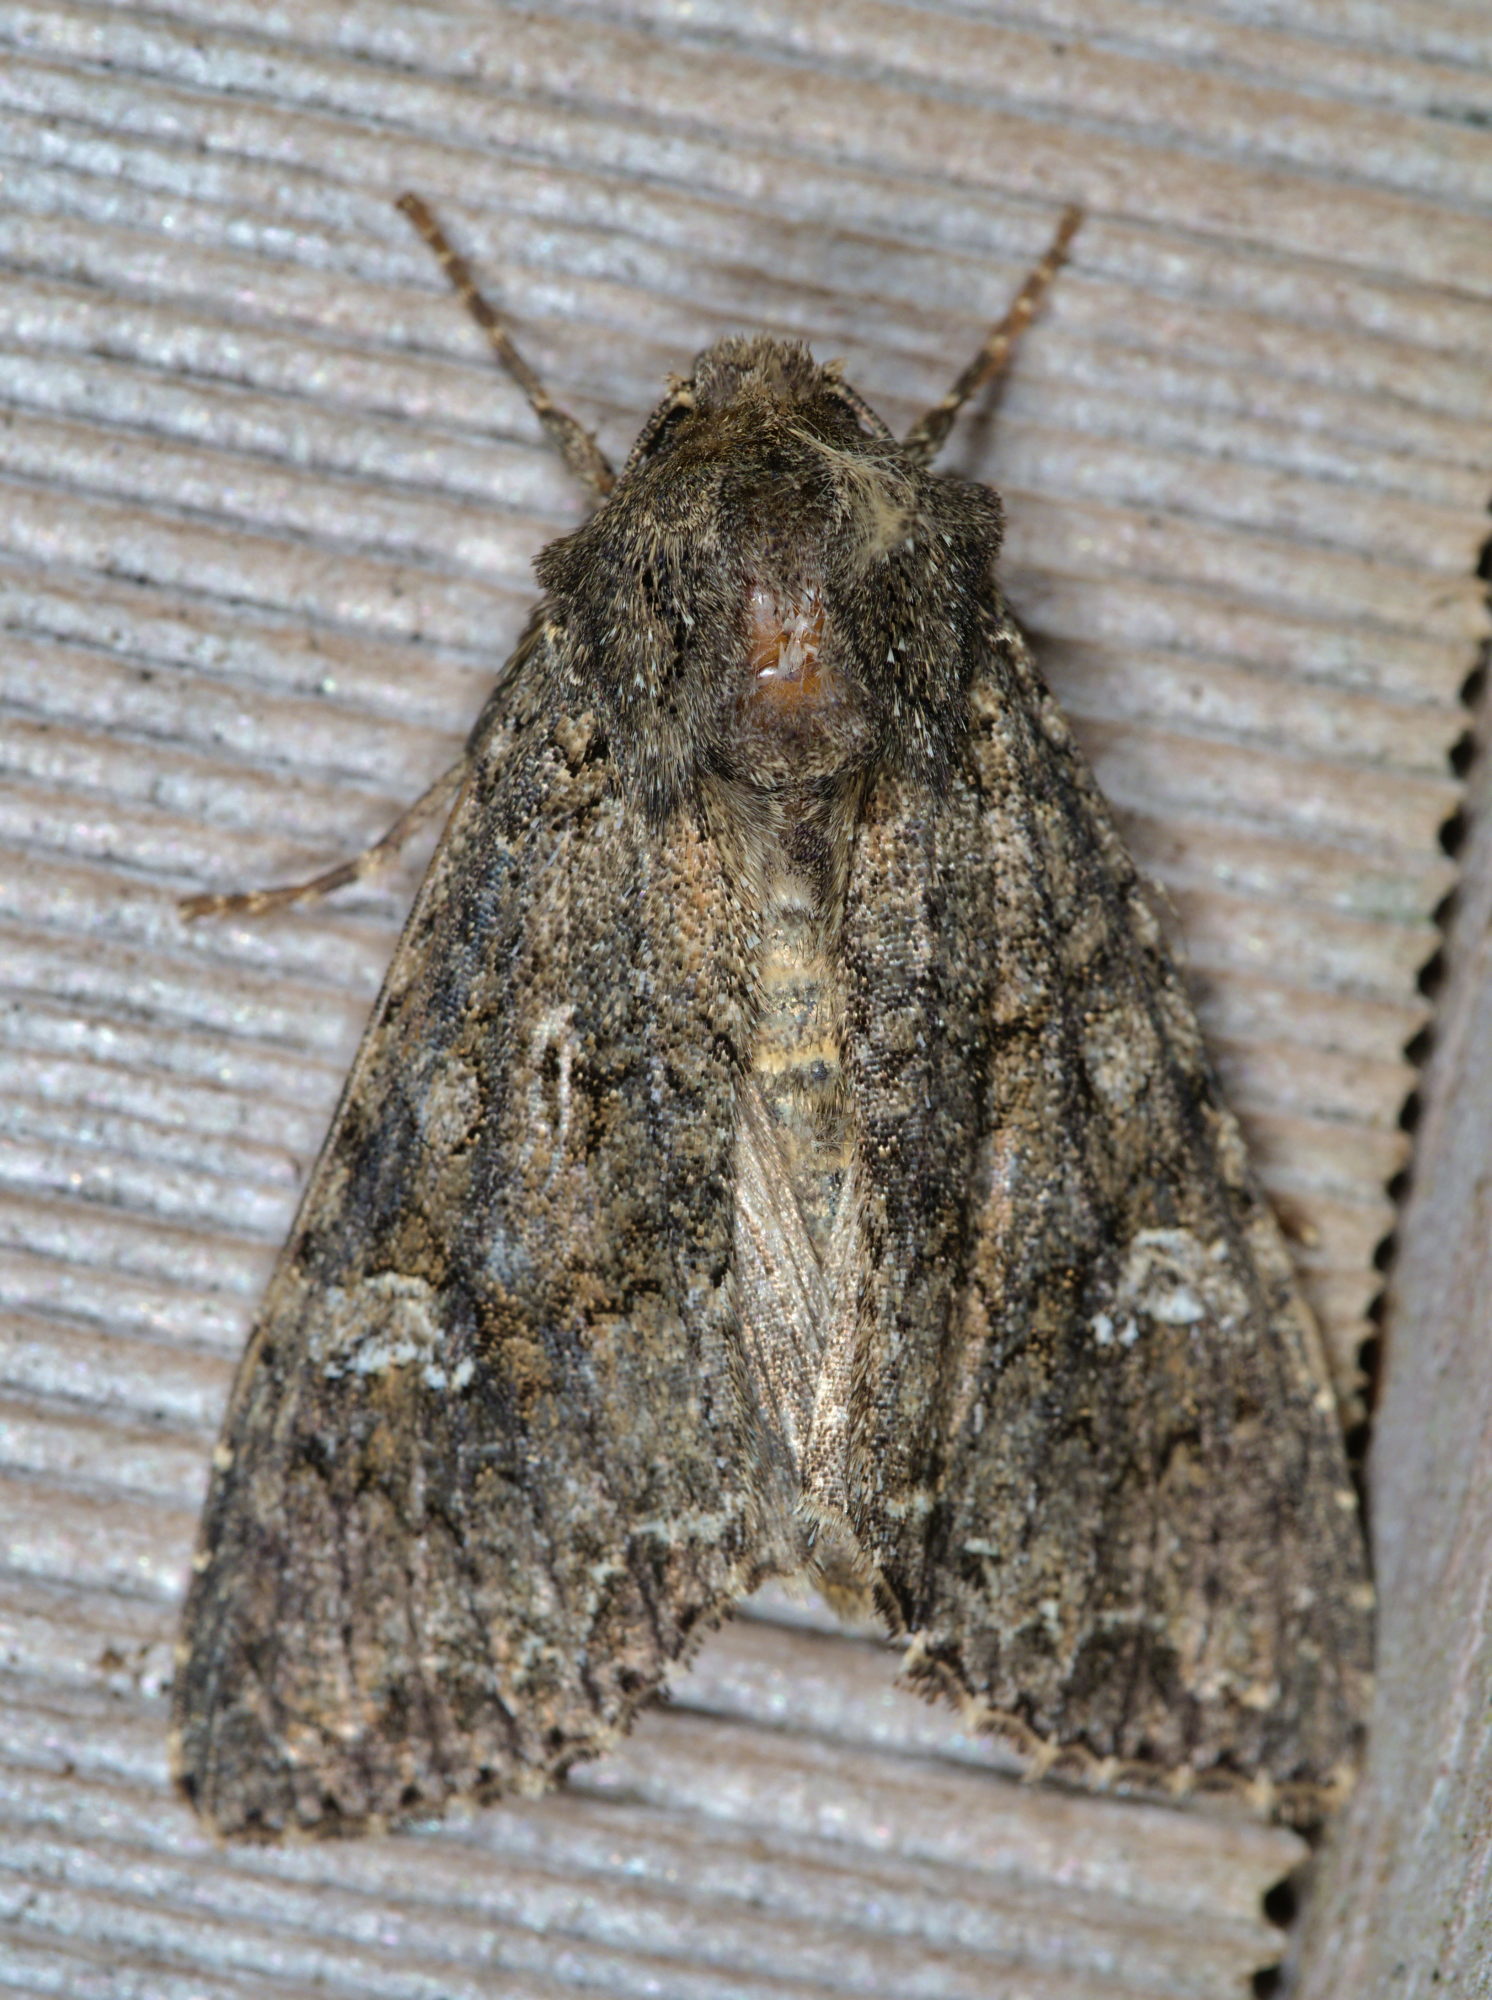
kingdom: Animalia
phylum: Arthropoda
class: Insecta
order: Lepidoptera
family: Noctuidae
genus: Mamestra
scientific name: Mamestra brassicae
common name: Cabbage moth
